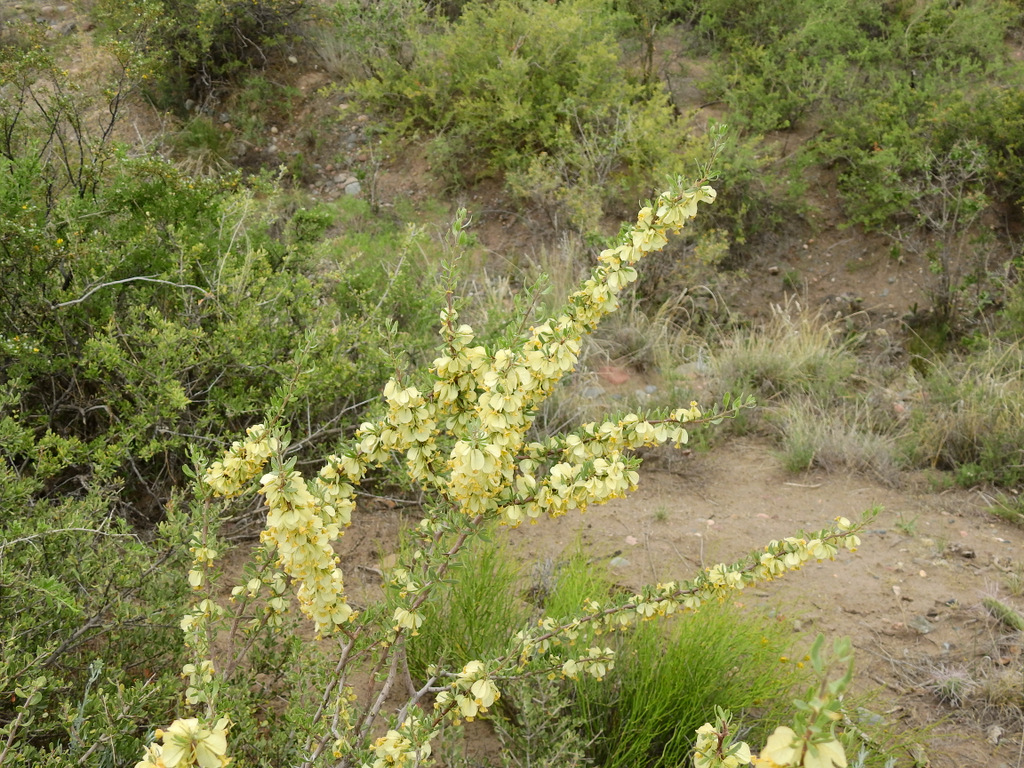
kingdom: Plantae
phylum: Tracheophyta
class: Magnoliopsida
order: Caryophyllales
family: Nyctaginaceae
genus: Bougainvillea
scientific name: Bougainvillea spinosa
